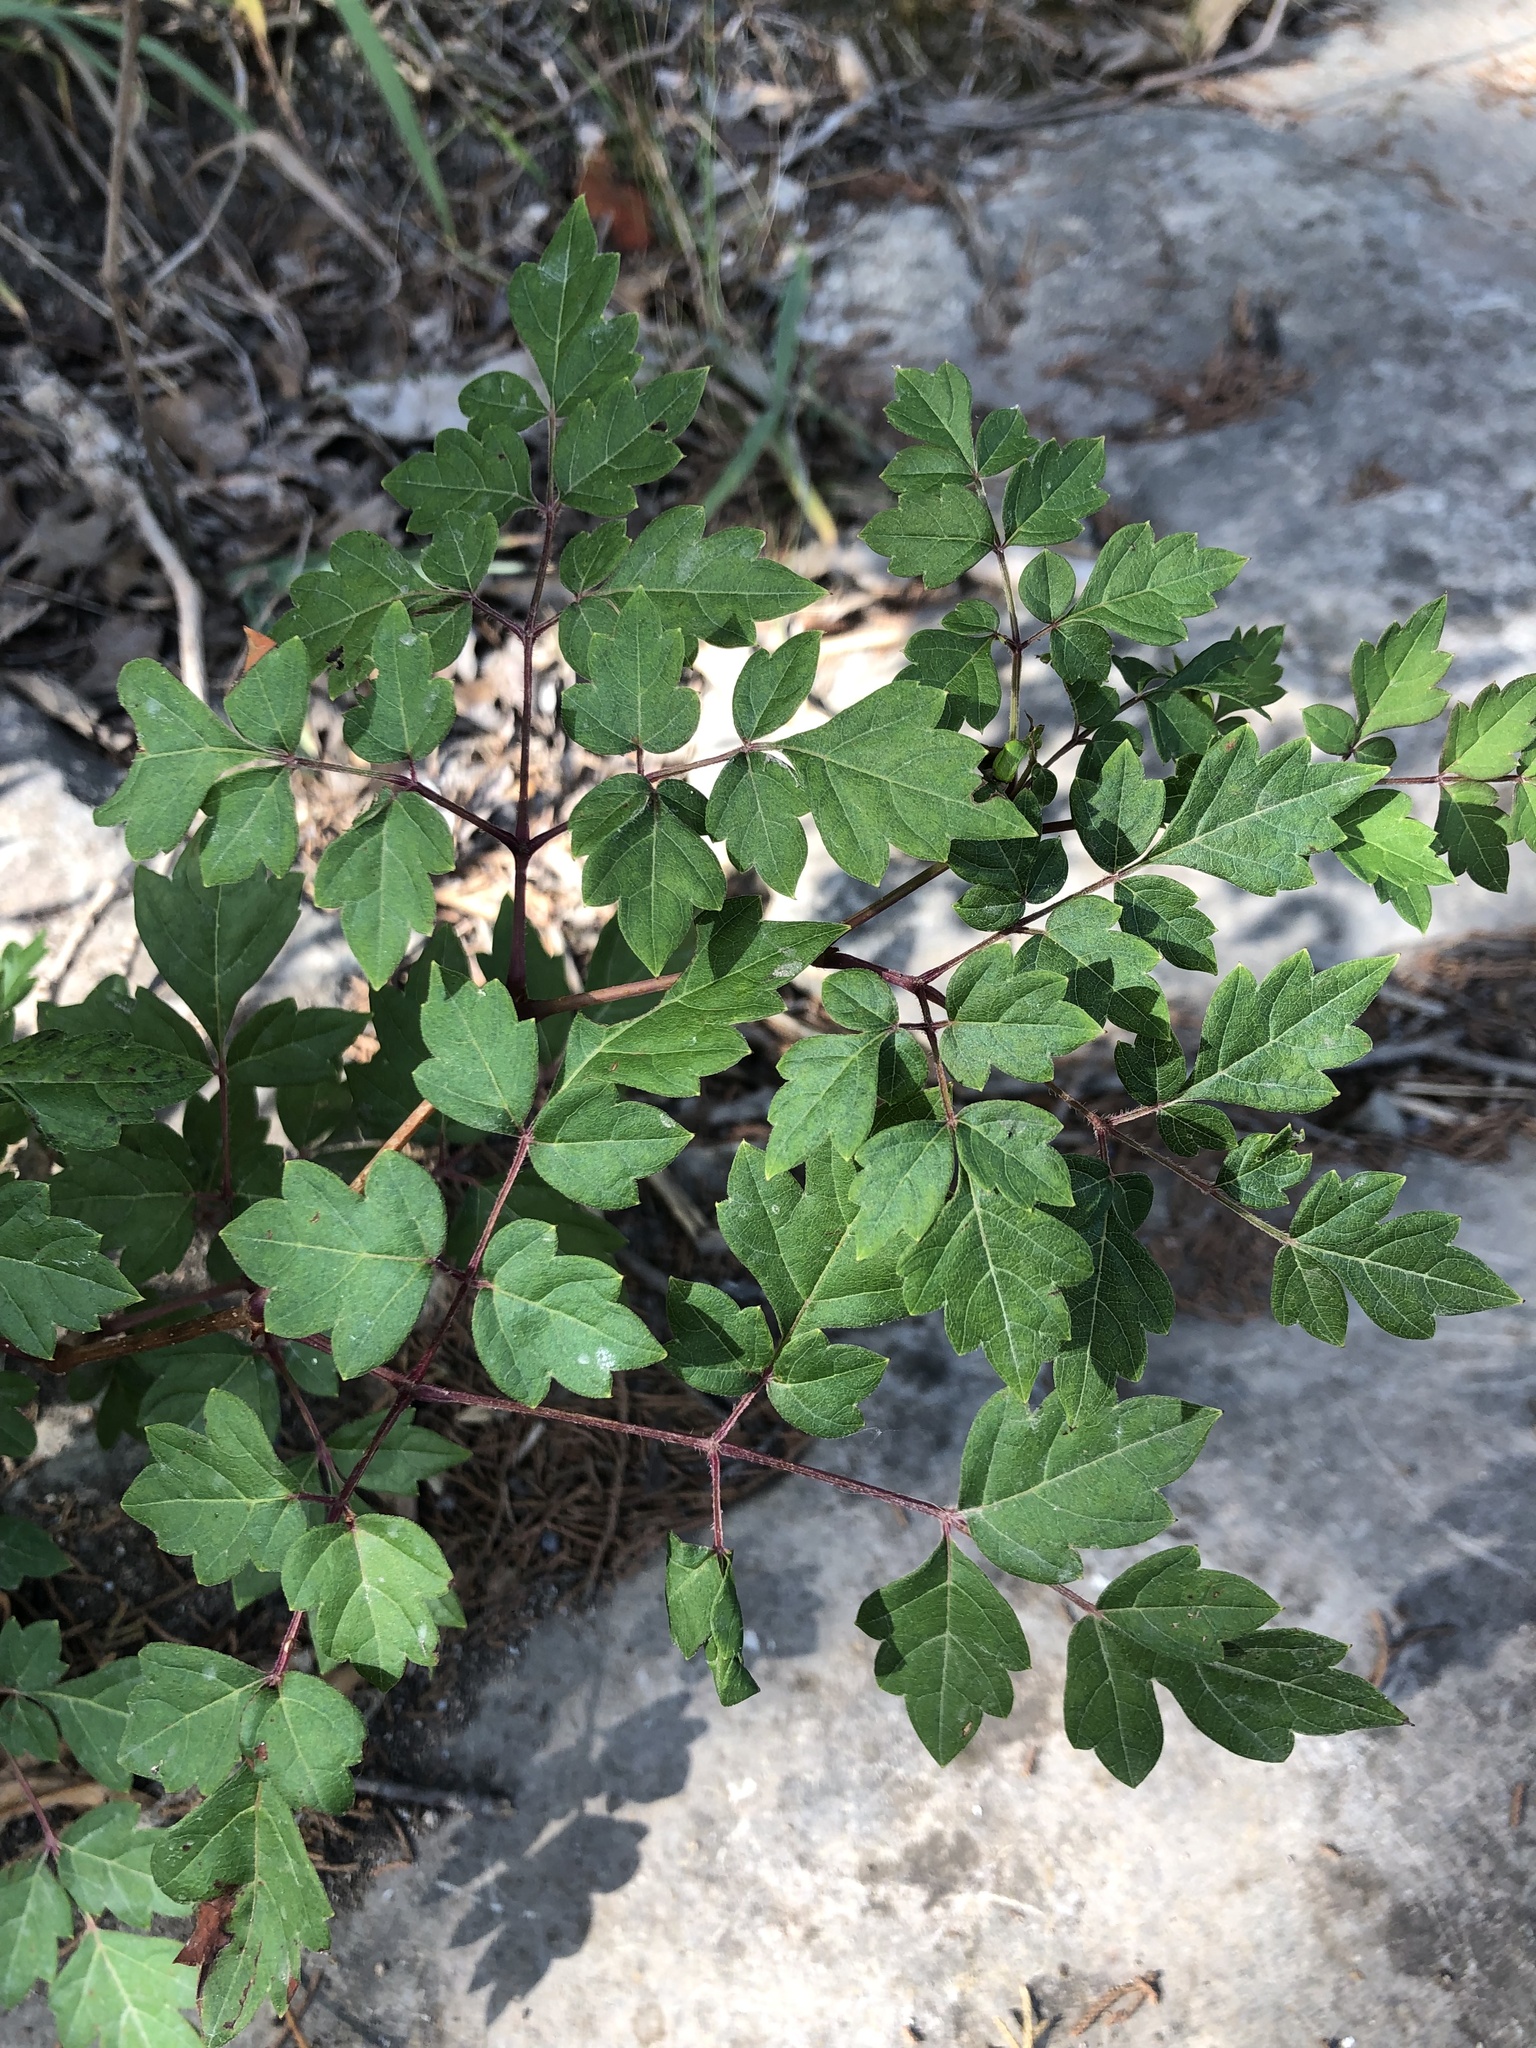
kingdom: Plantae
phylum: Tracheophyta
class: Magnoliopsida
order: Vitales
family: Vitaceae
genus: Nekemias
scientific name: Nekemias arborea
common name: Peppervine
